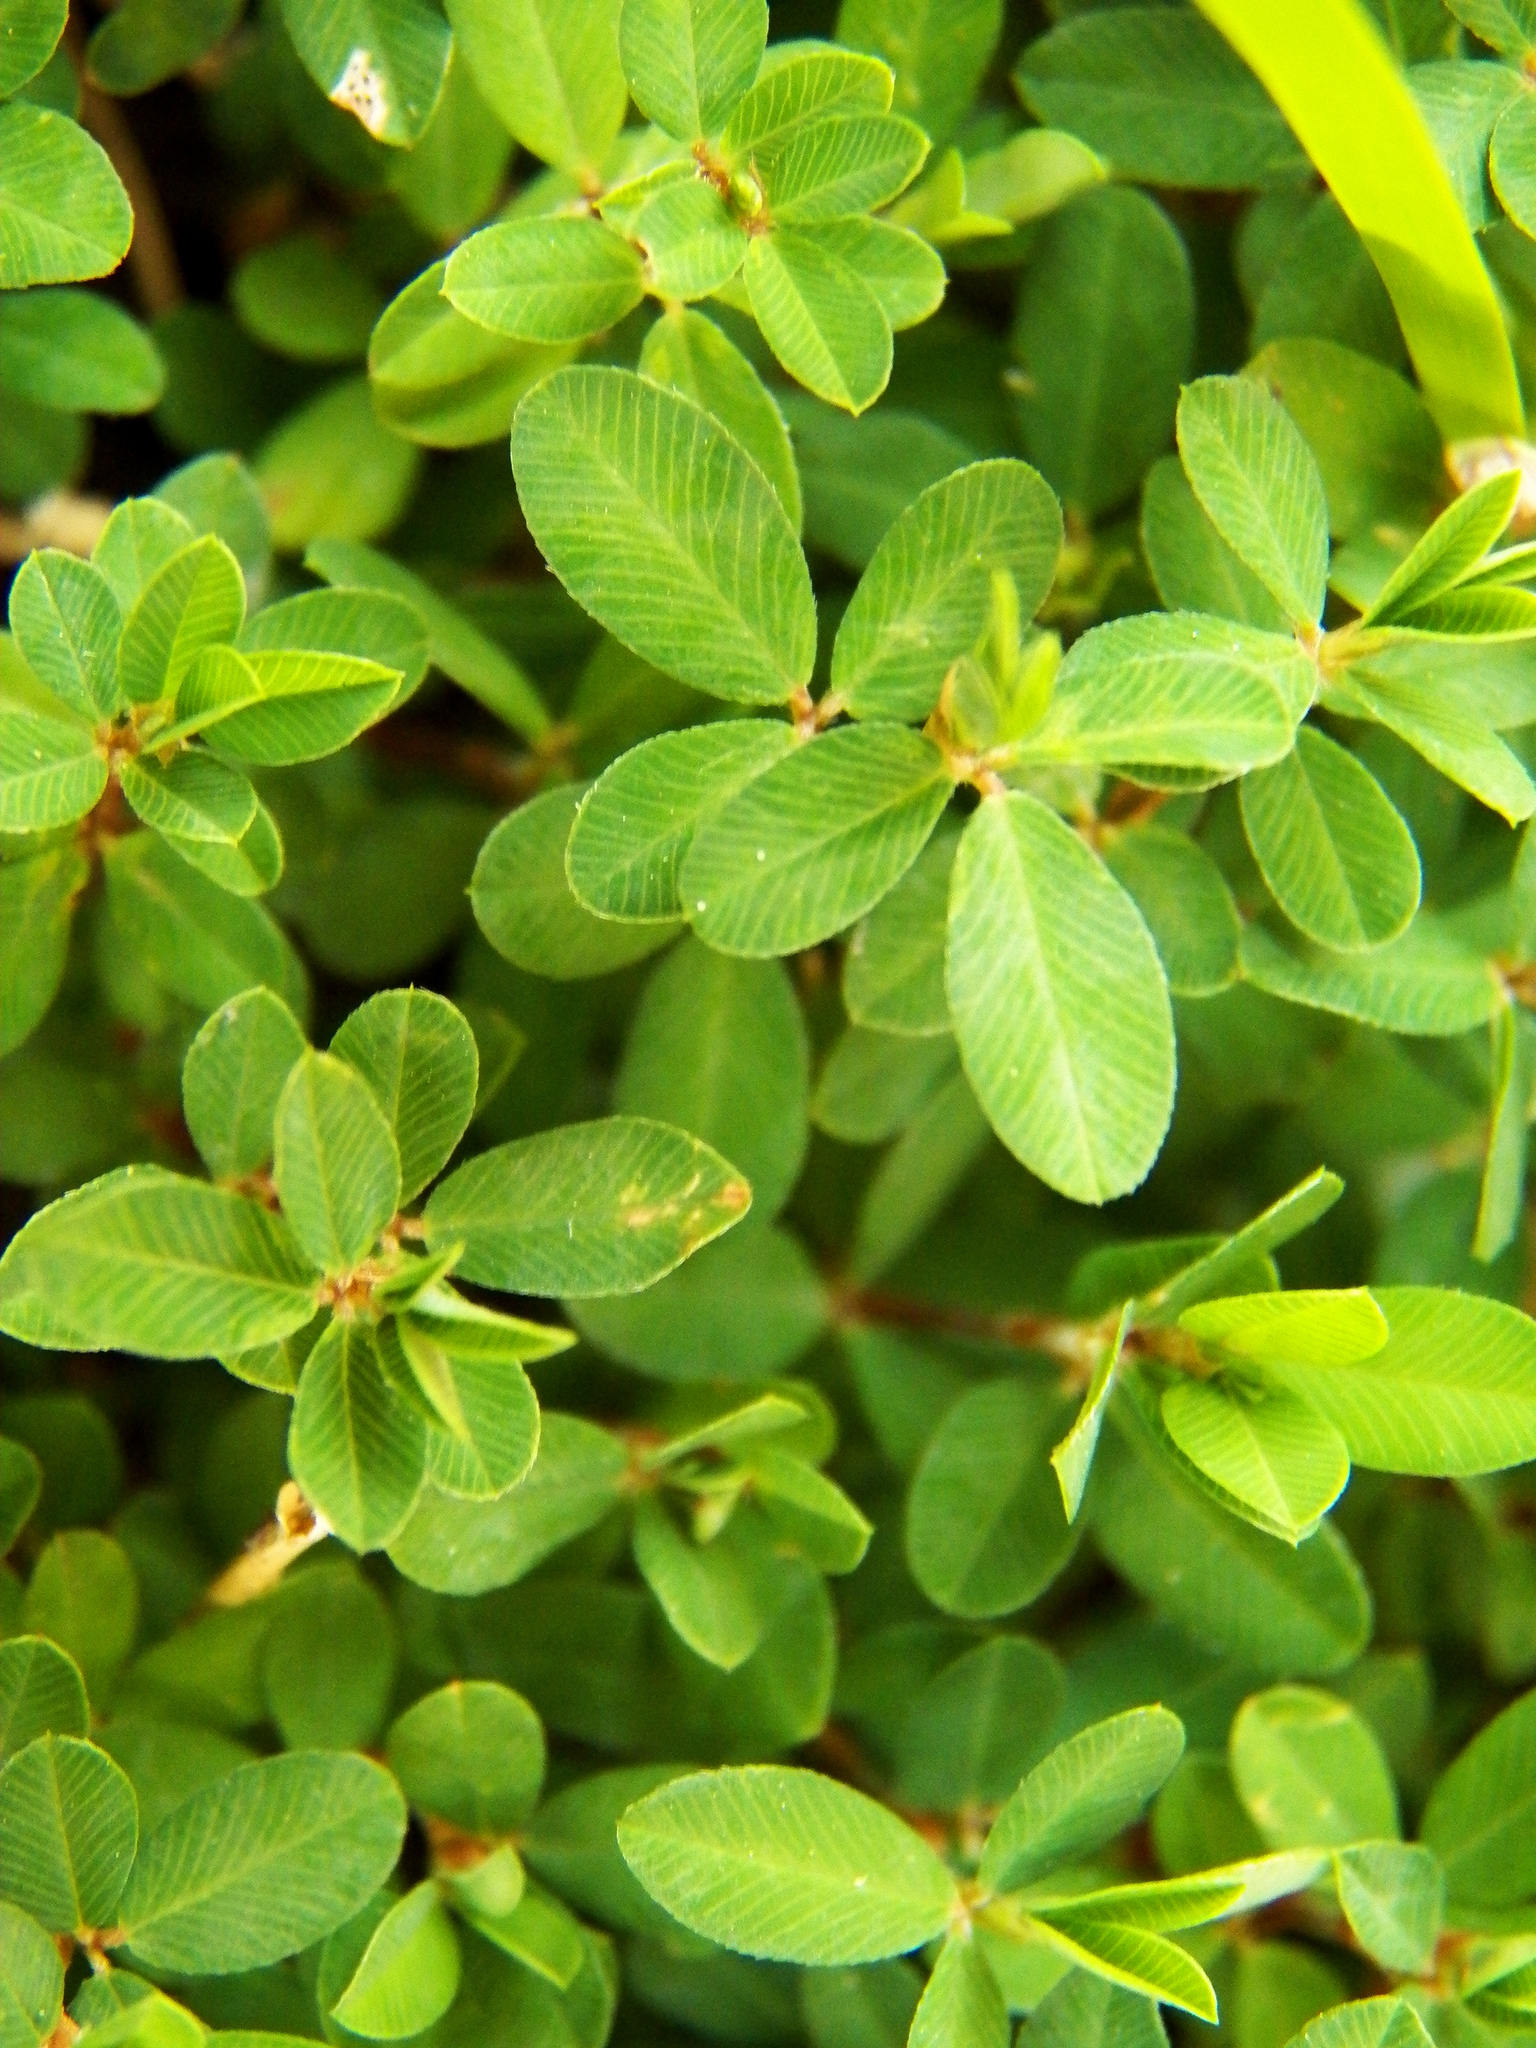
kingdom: Plantae
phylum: Tracheophyta
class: Magnoliopsida
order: Fabales
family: Fabaceae
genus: Kummerowia
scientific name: Kummerowia striata
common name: Japanese clover
